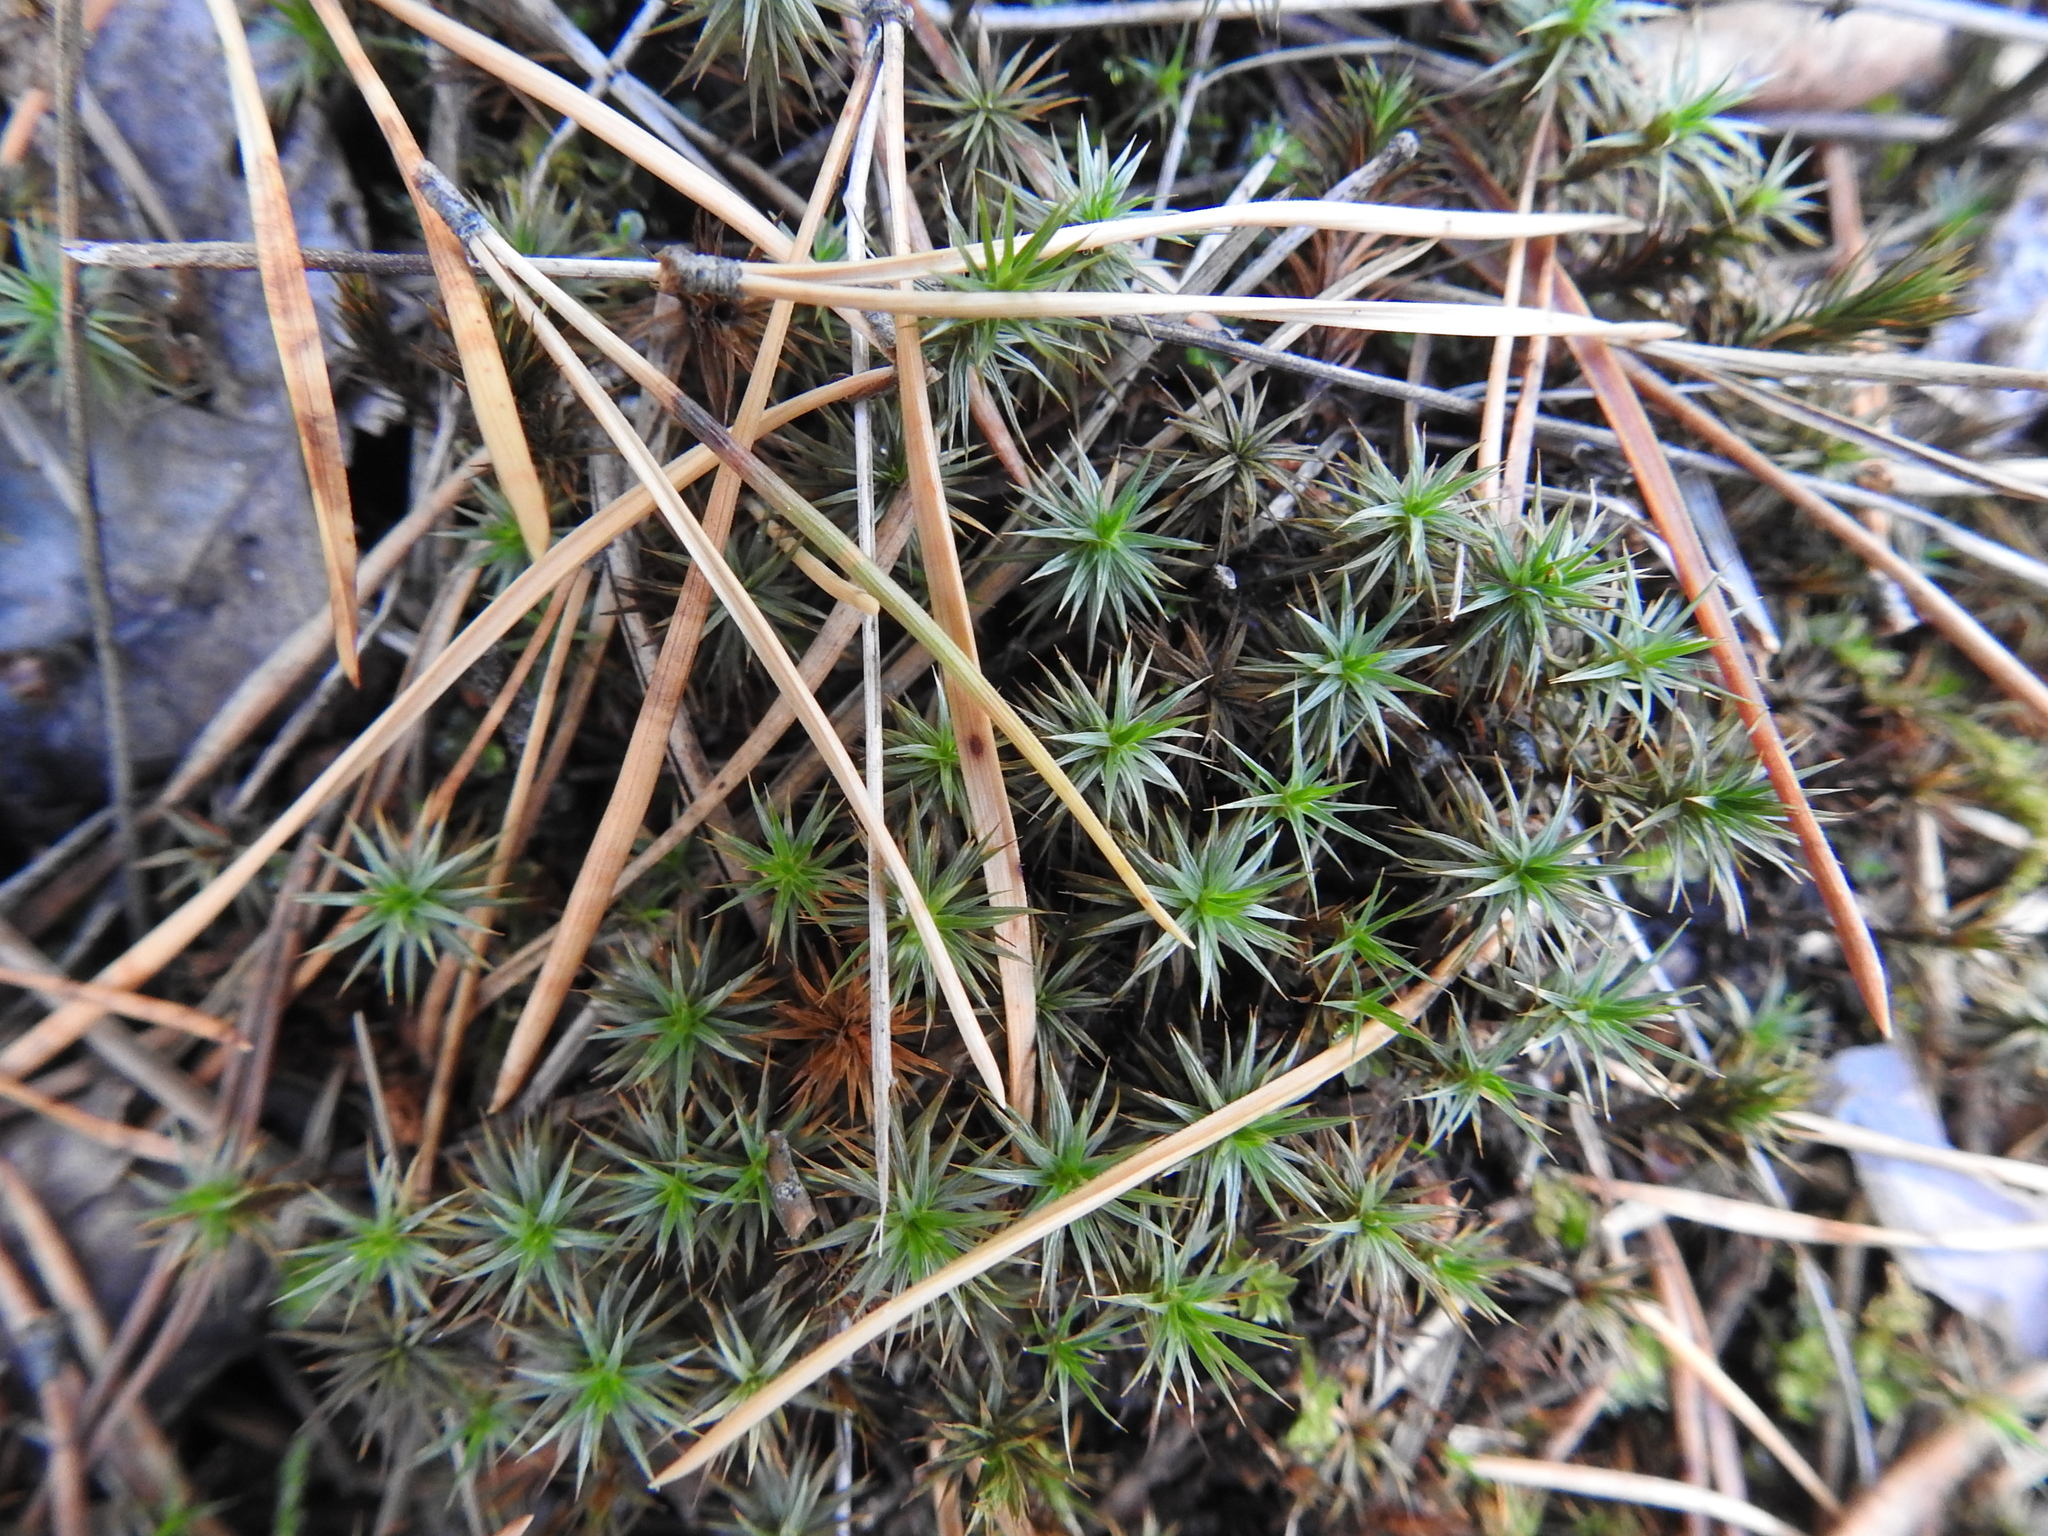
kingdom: Plantae
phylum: Bryophyta
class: Polytrichopsida
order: Polytrichales
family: Polytrichaceae
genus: Polytrichum
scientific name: Polytrichum juniperinum
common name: Juniper haircap moss
